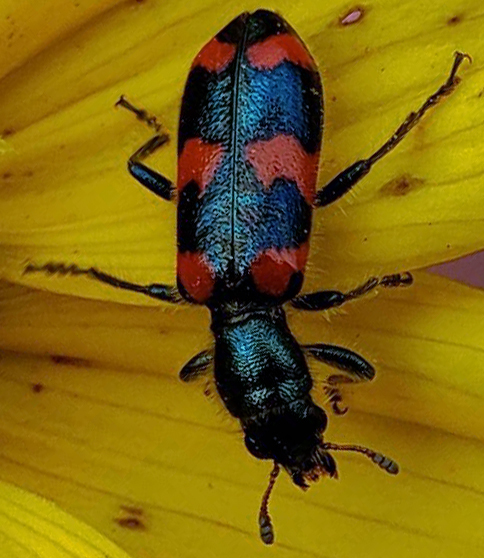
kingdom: Animalia
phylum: Arthropoda
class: Insecta
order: Coleoptera
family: Cleridae
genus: Trichodes
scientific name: Trichodes nutalli
